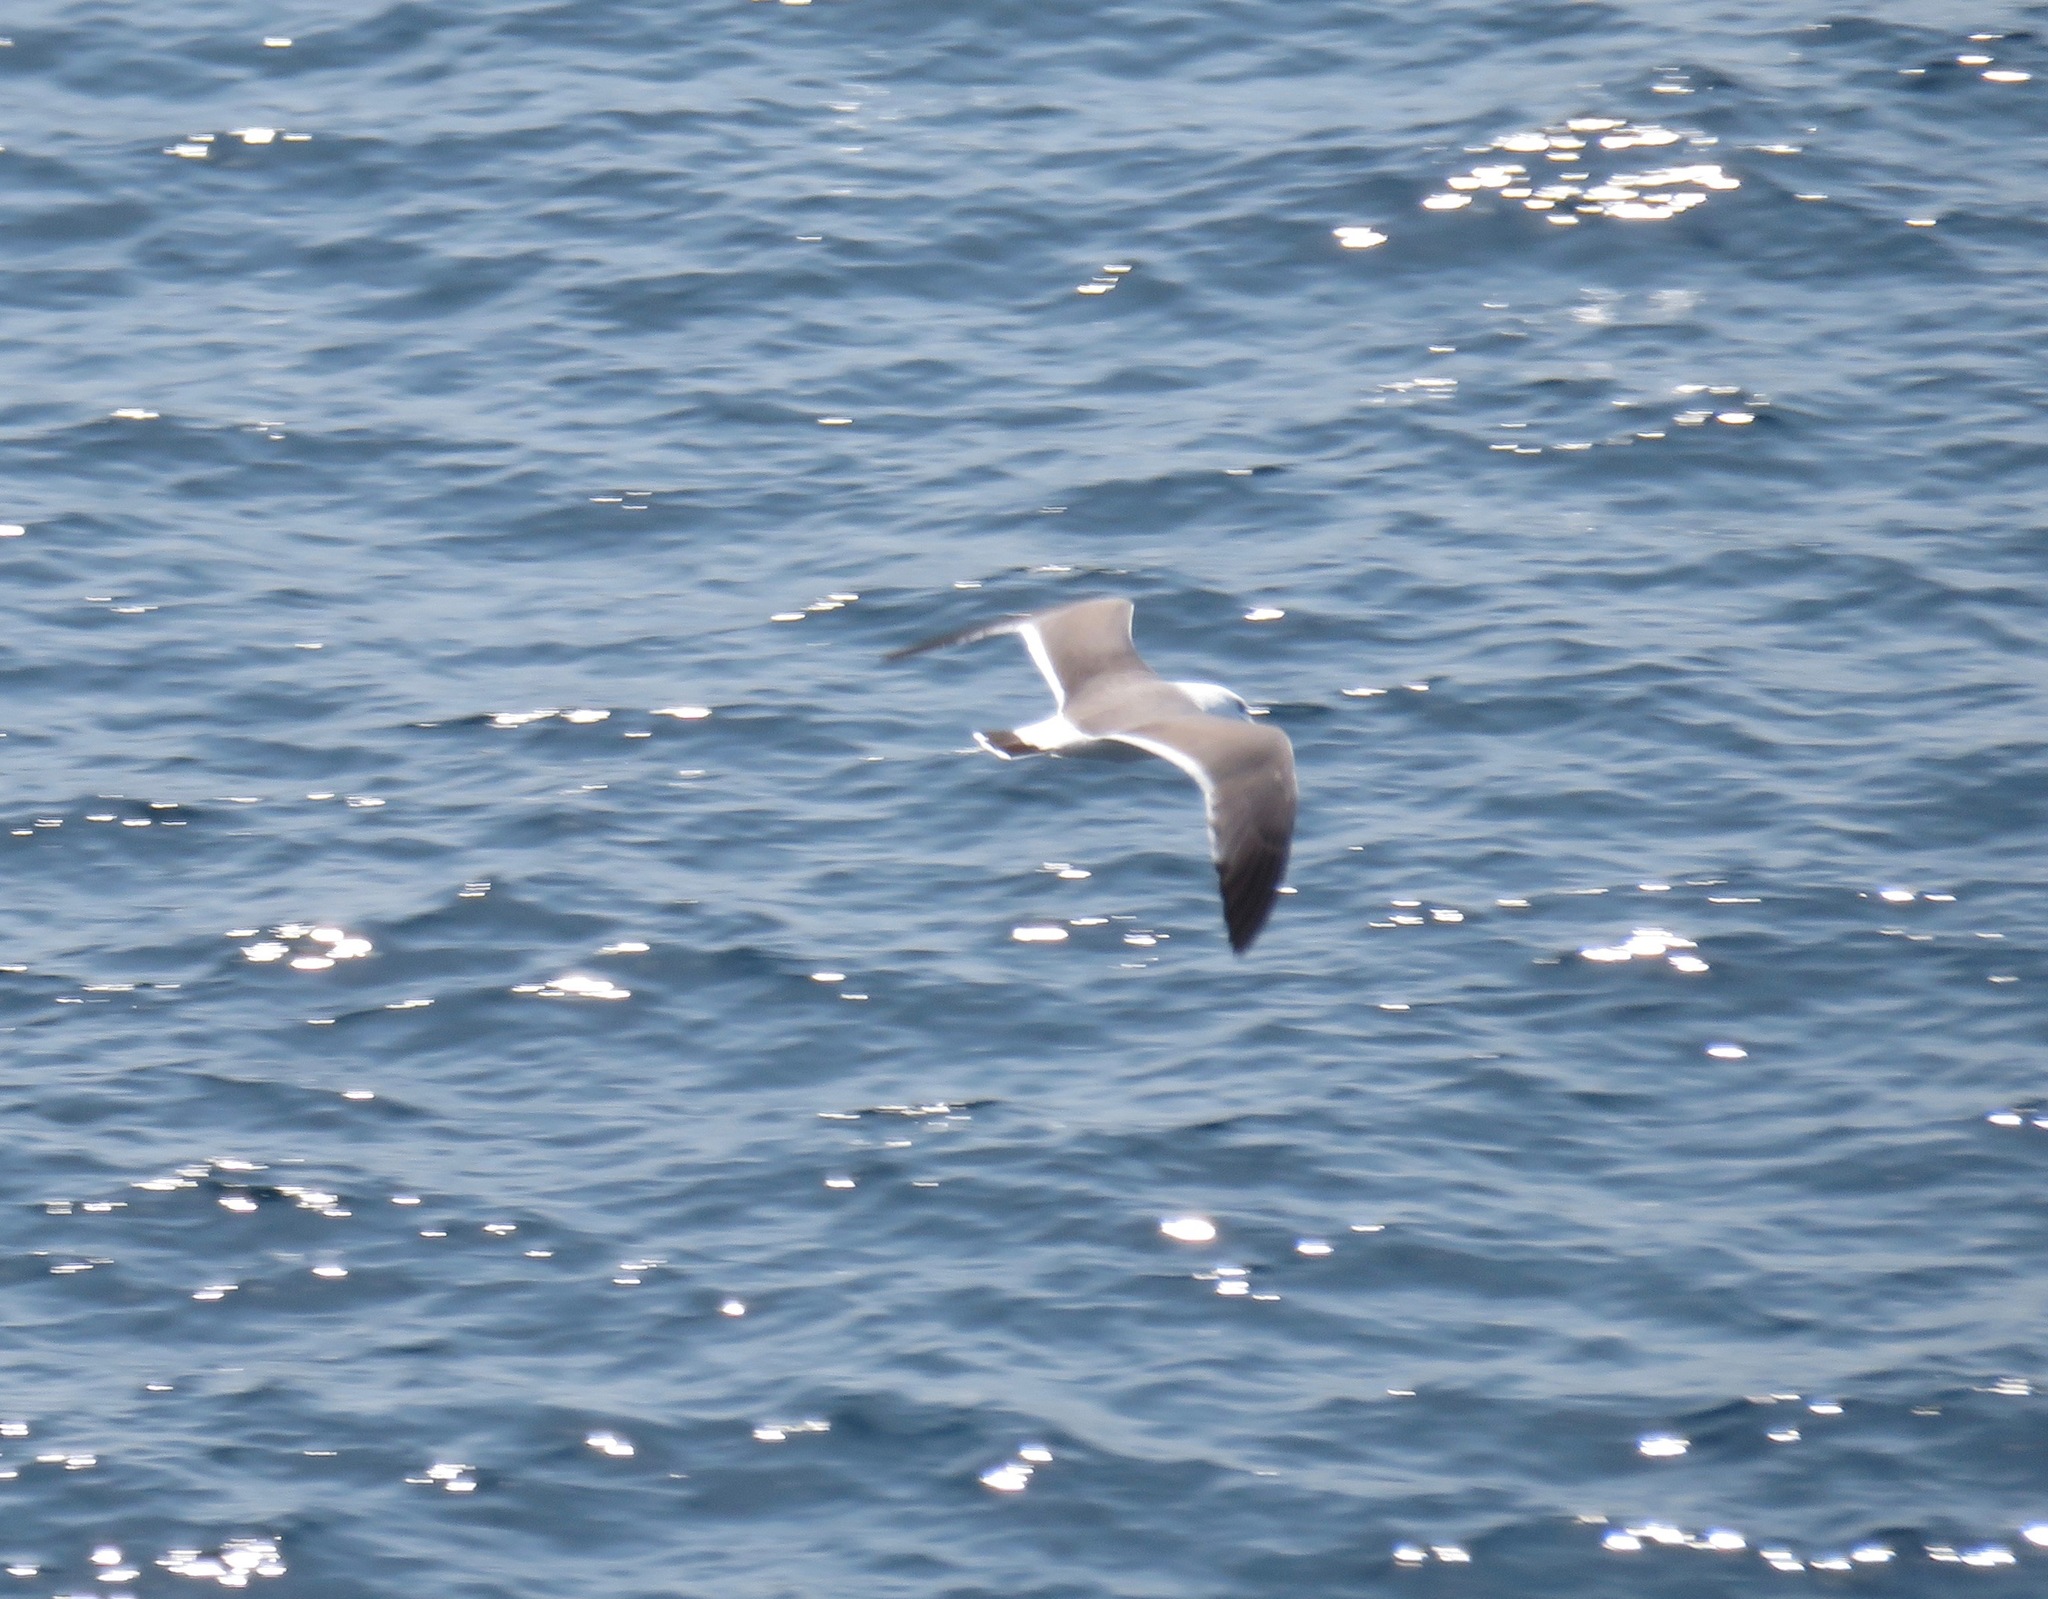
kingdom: Animalia
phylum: Chordata
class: Aves
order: Charadriiformes
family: Laridae
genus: Larus
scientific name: Larus crassirostris
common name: Black-tailed gull
